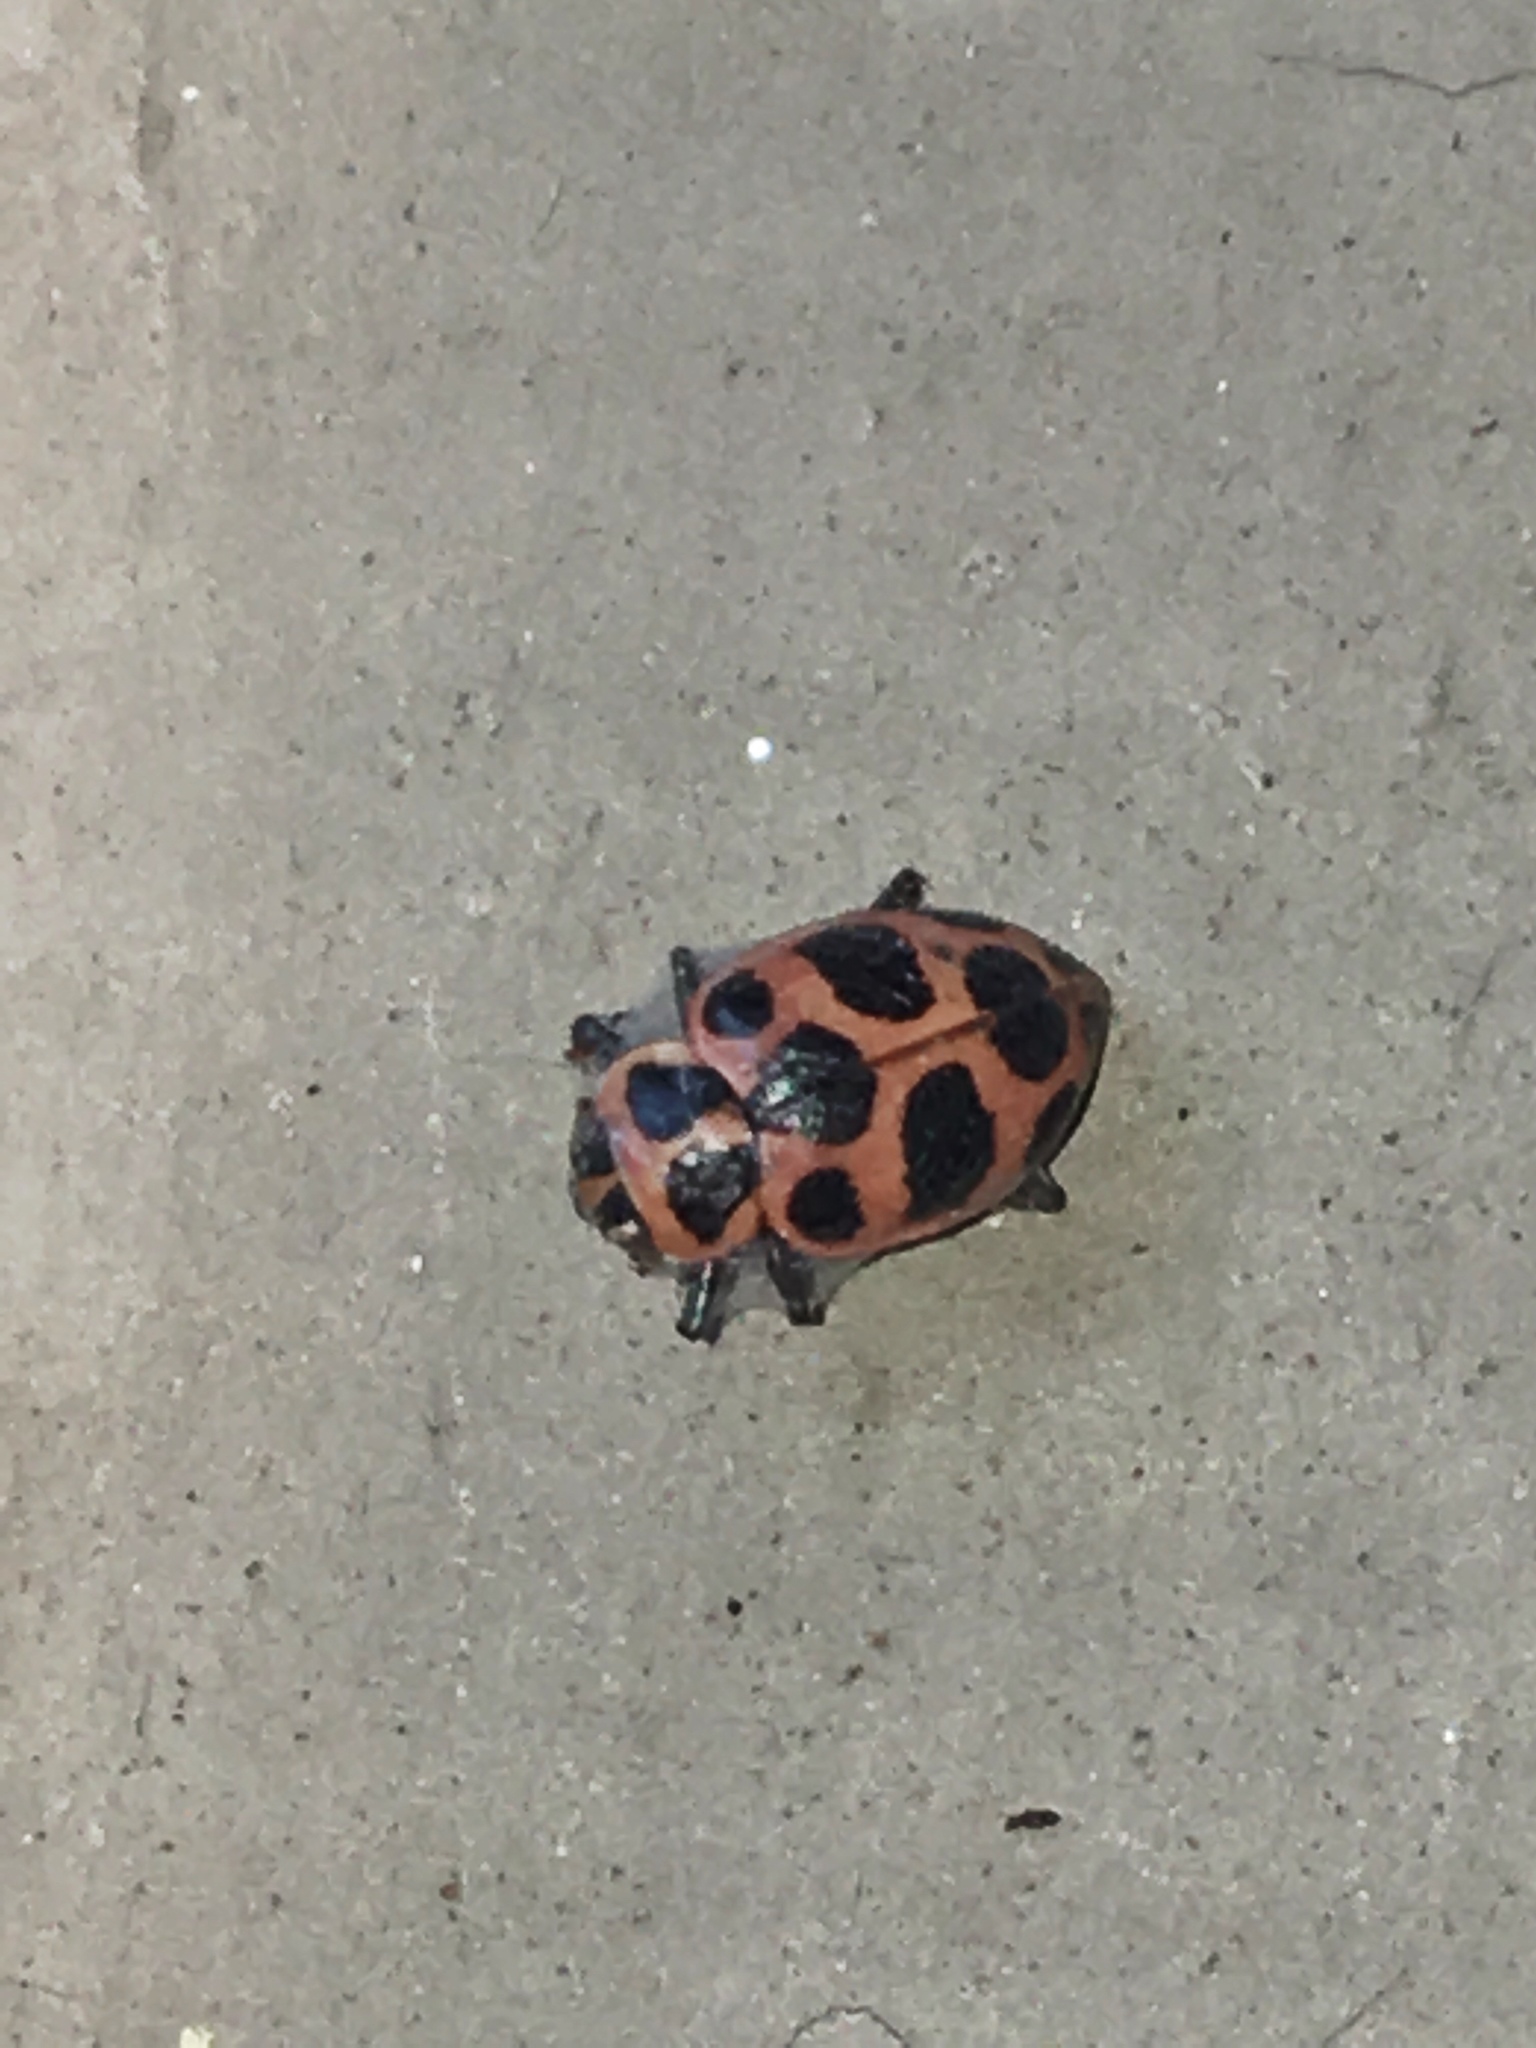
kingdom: Animalia
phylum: Arthropoda
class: Insecta
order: Coleoptera
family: Coccinellidae
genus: Coleomegilla
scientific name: Coleomegilla maculata
